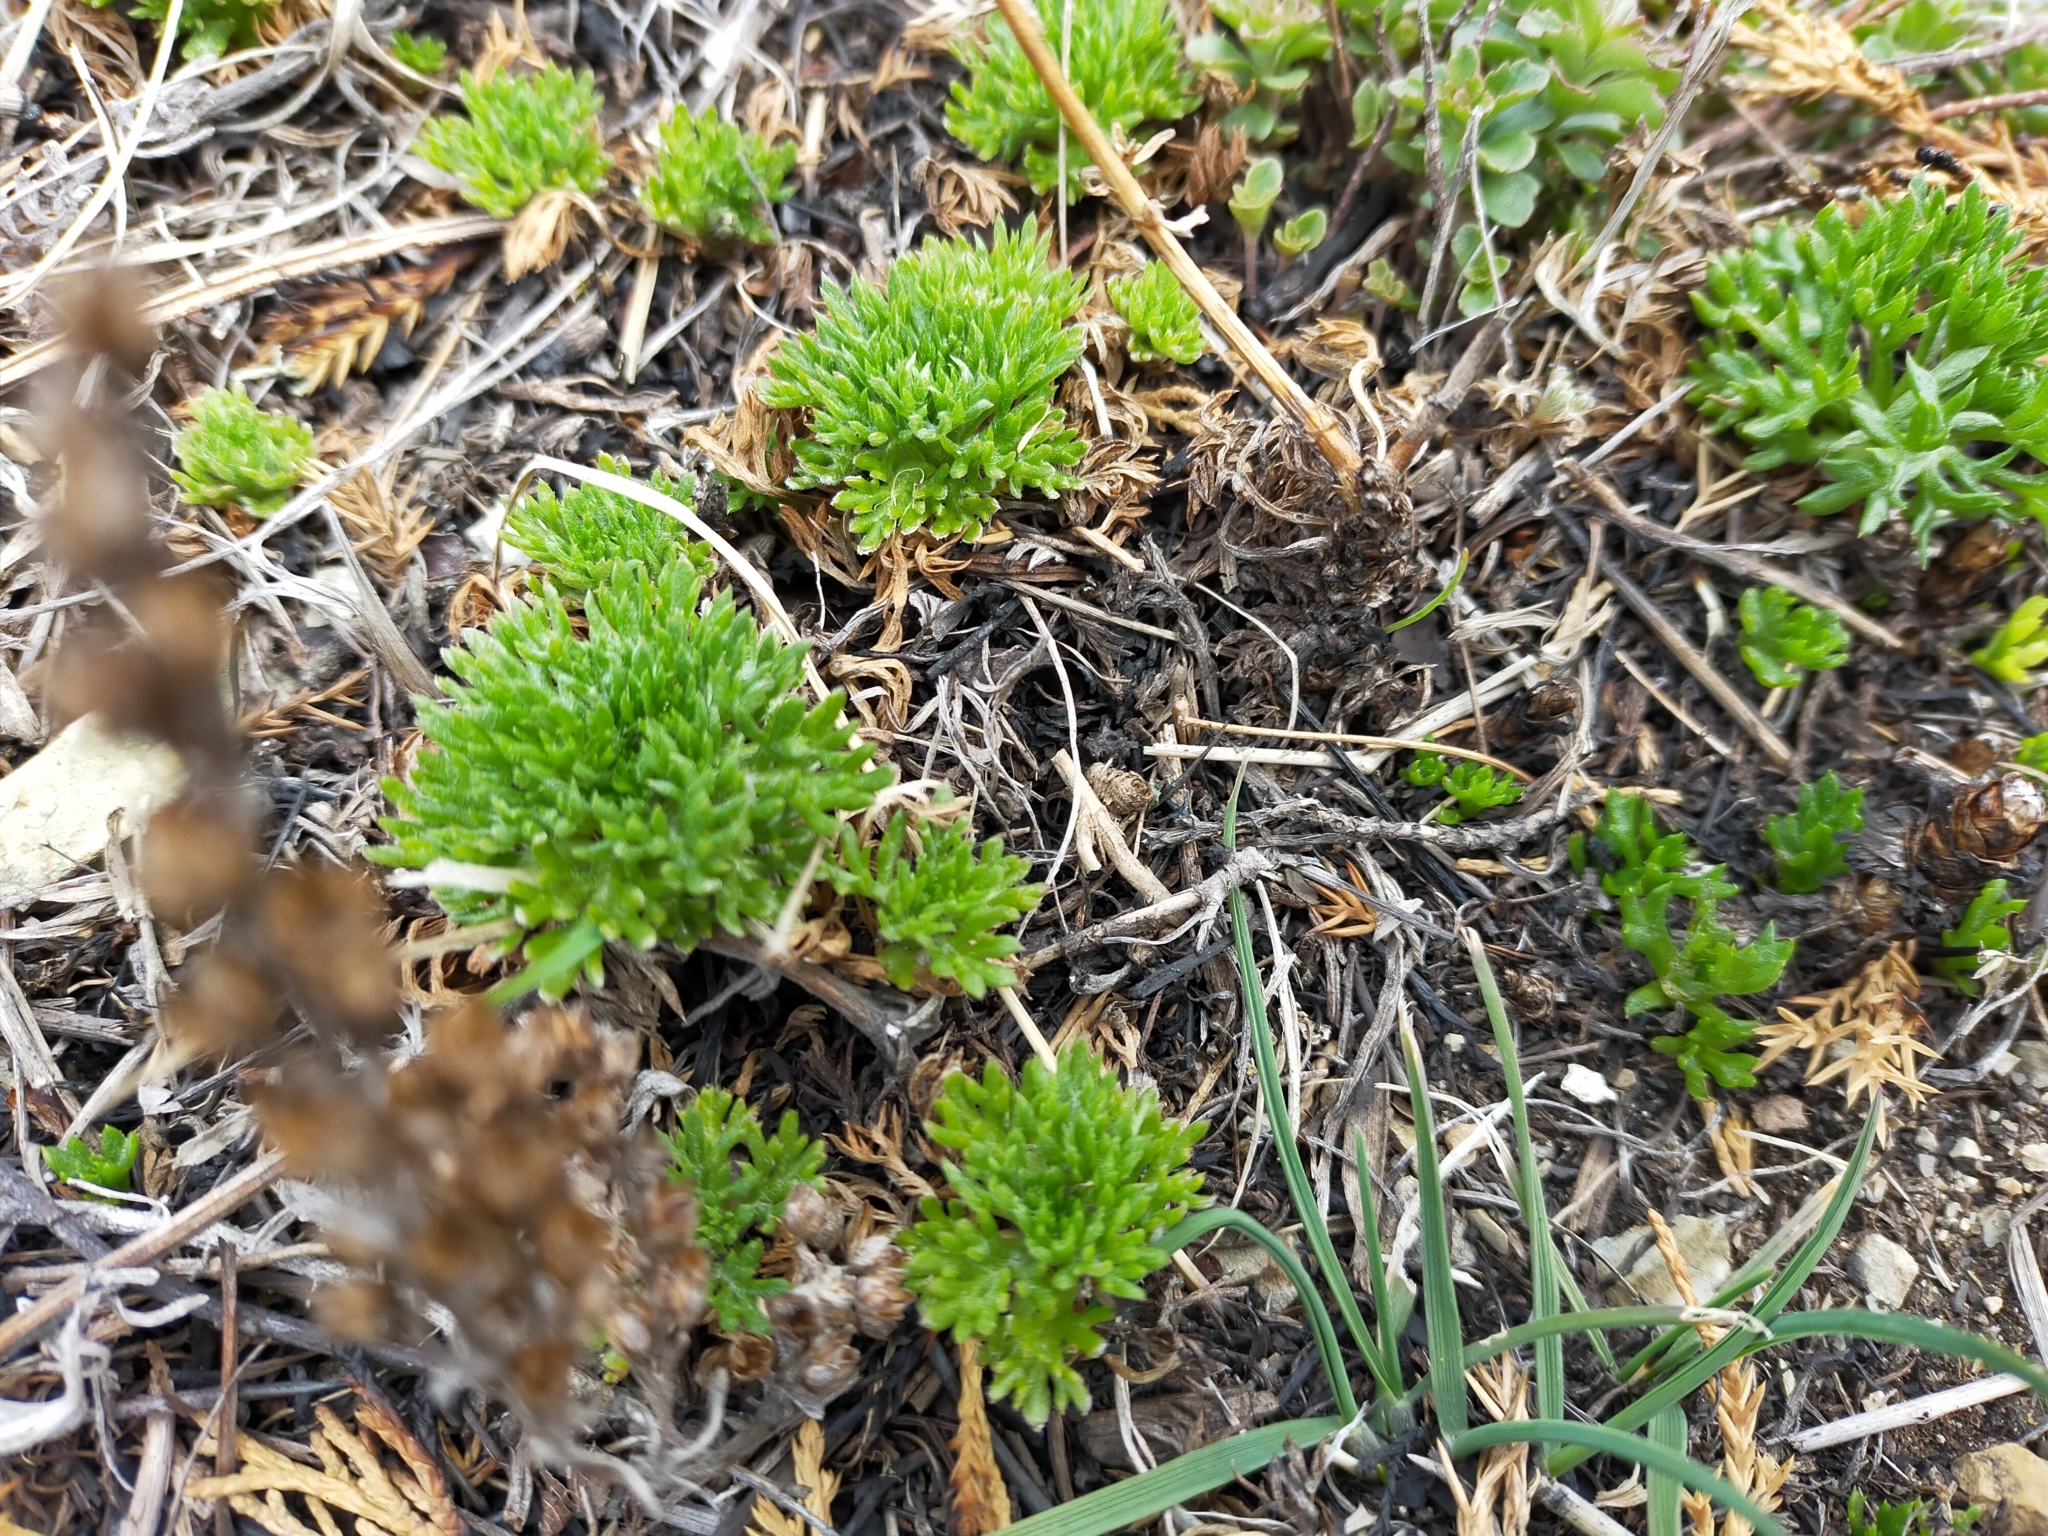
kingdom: Plantae
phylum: Tracheophyta
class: Magnoliopsida
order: Asterales
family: Asteraceae
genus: Chrysanthemum
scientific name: Chrysanthemum coreanum
